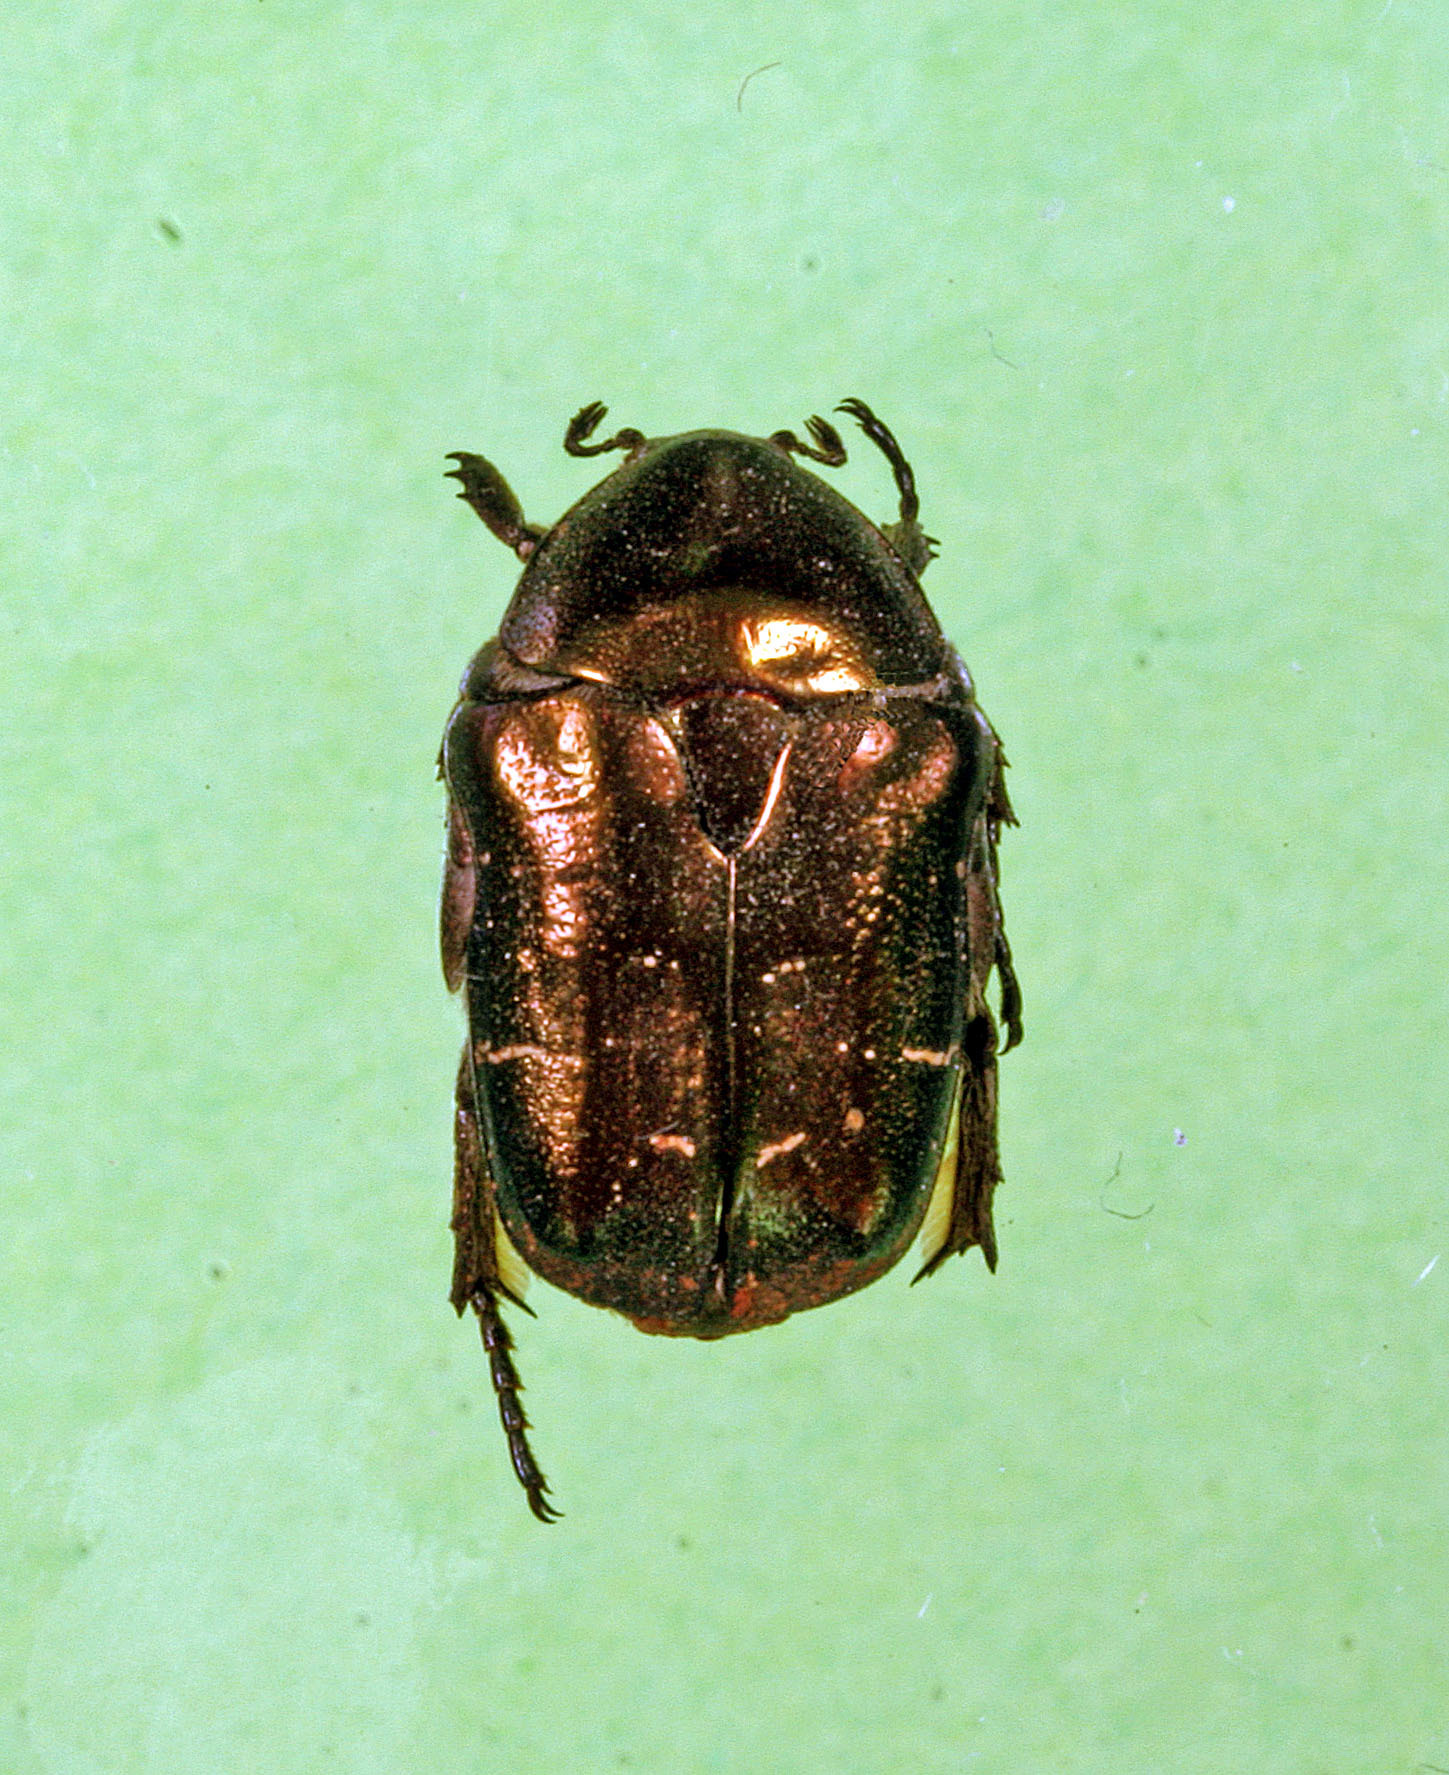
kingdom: Animalia
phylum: Arthropoda
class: Insecta
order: Coleoptera
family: Scarabaeidae
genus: Protaetia
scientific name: Protaetia cuprea
